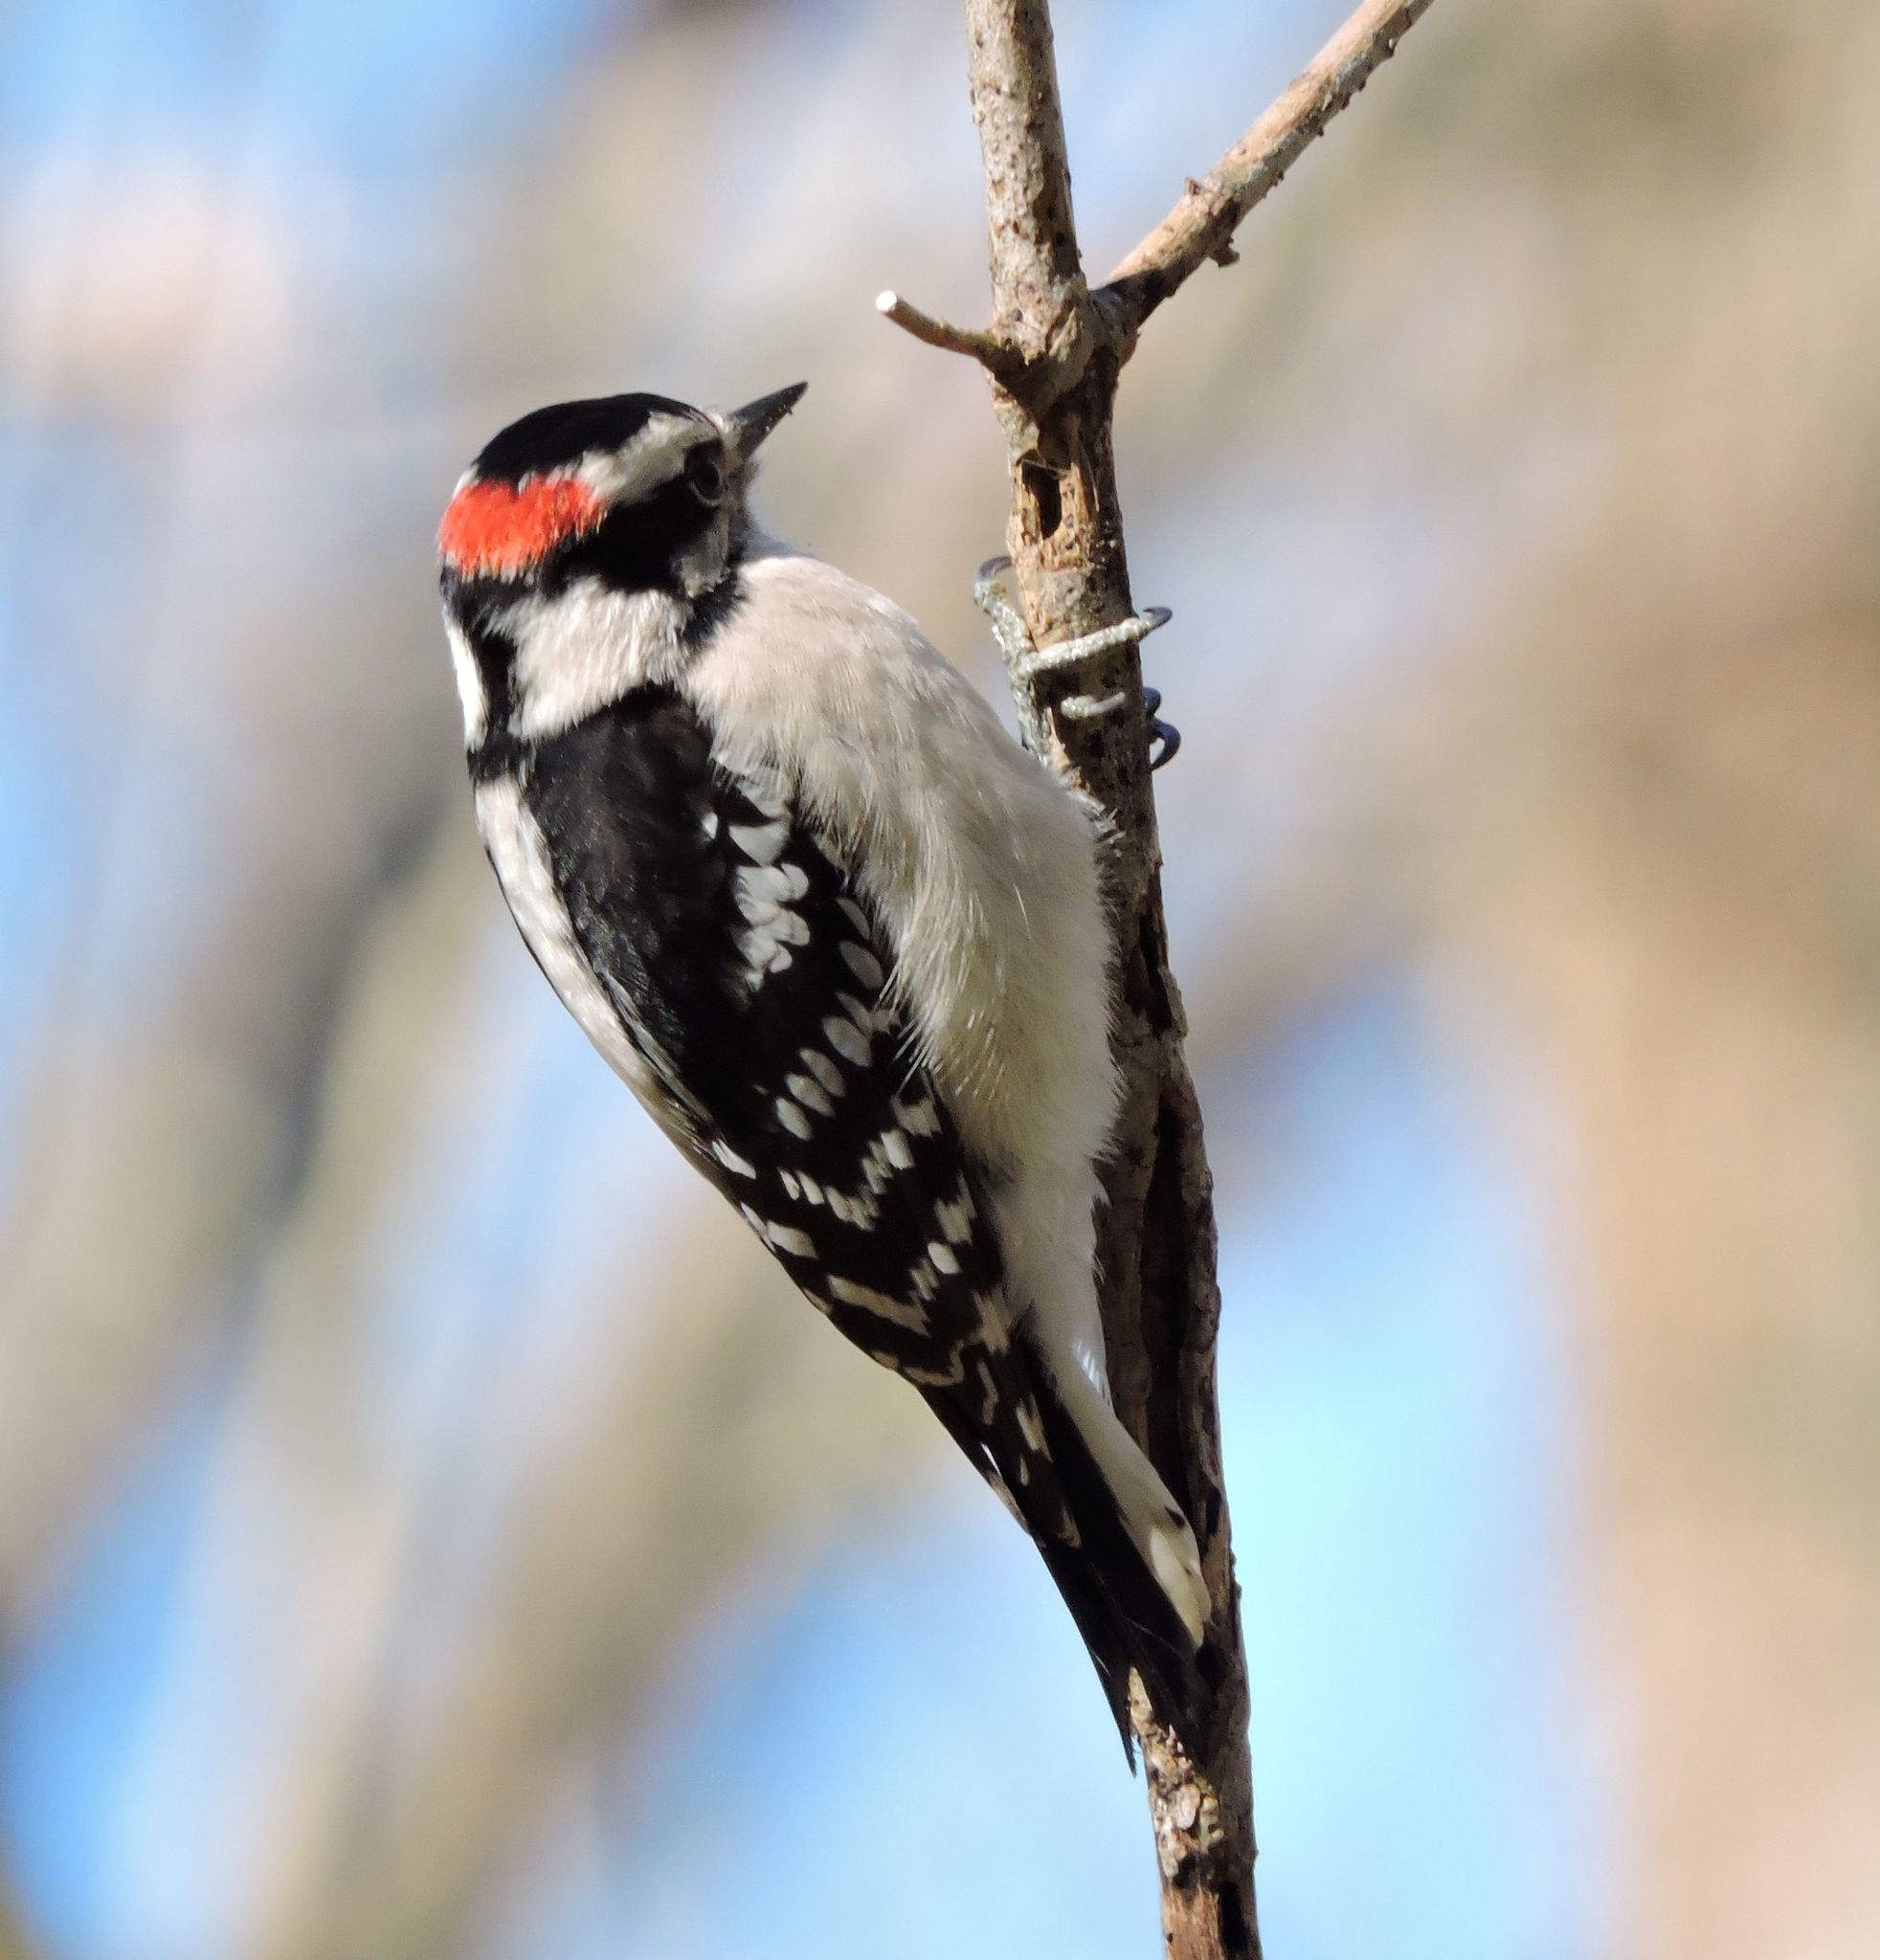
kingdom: Animalia
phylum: Chordata
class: Aves
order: Piciformes
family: Picidae
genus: Dryobates
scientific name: Dryobates pubescens
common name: Downy woodpecker
